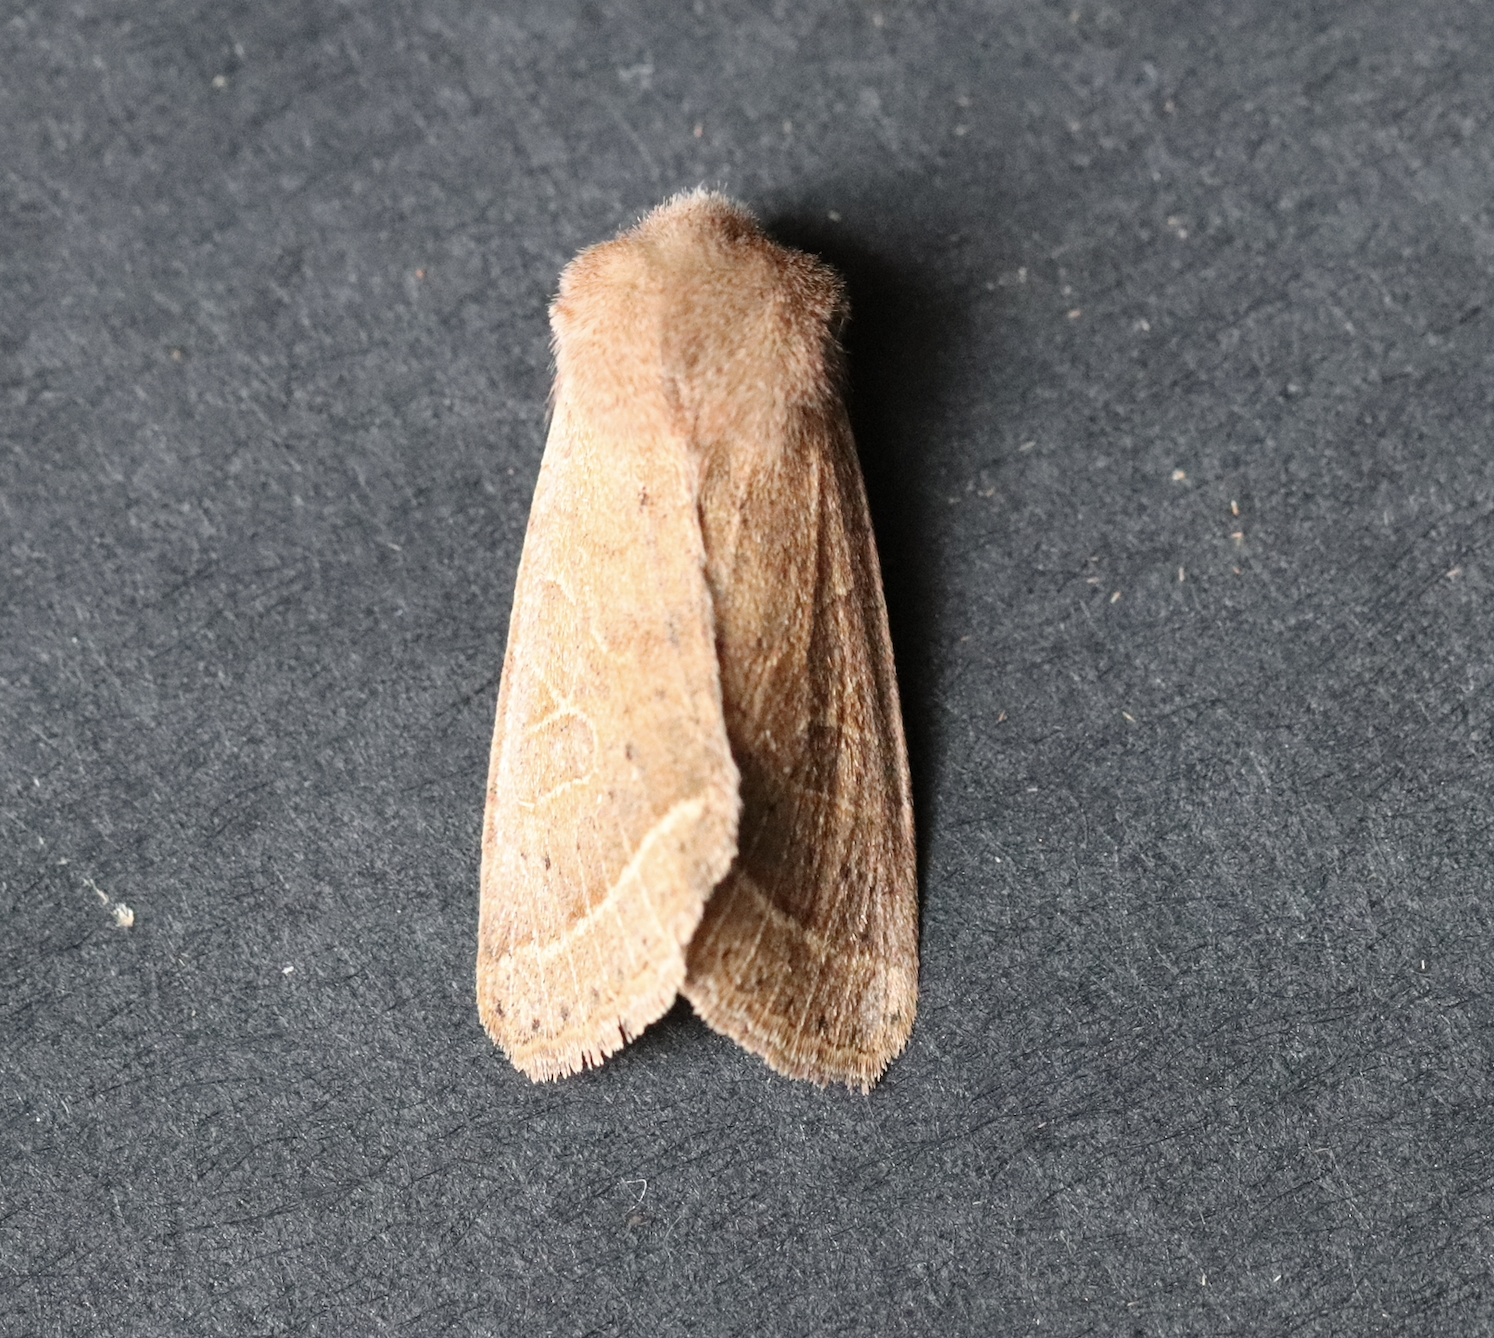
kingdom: Animalia
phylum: Arthropoda
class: Insecta
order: Lepidoptera
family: Noctuidae
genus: Orthosia
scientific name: Orthosia cerasi
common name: Common quaker
